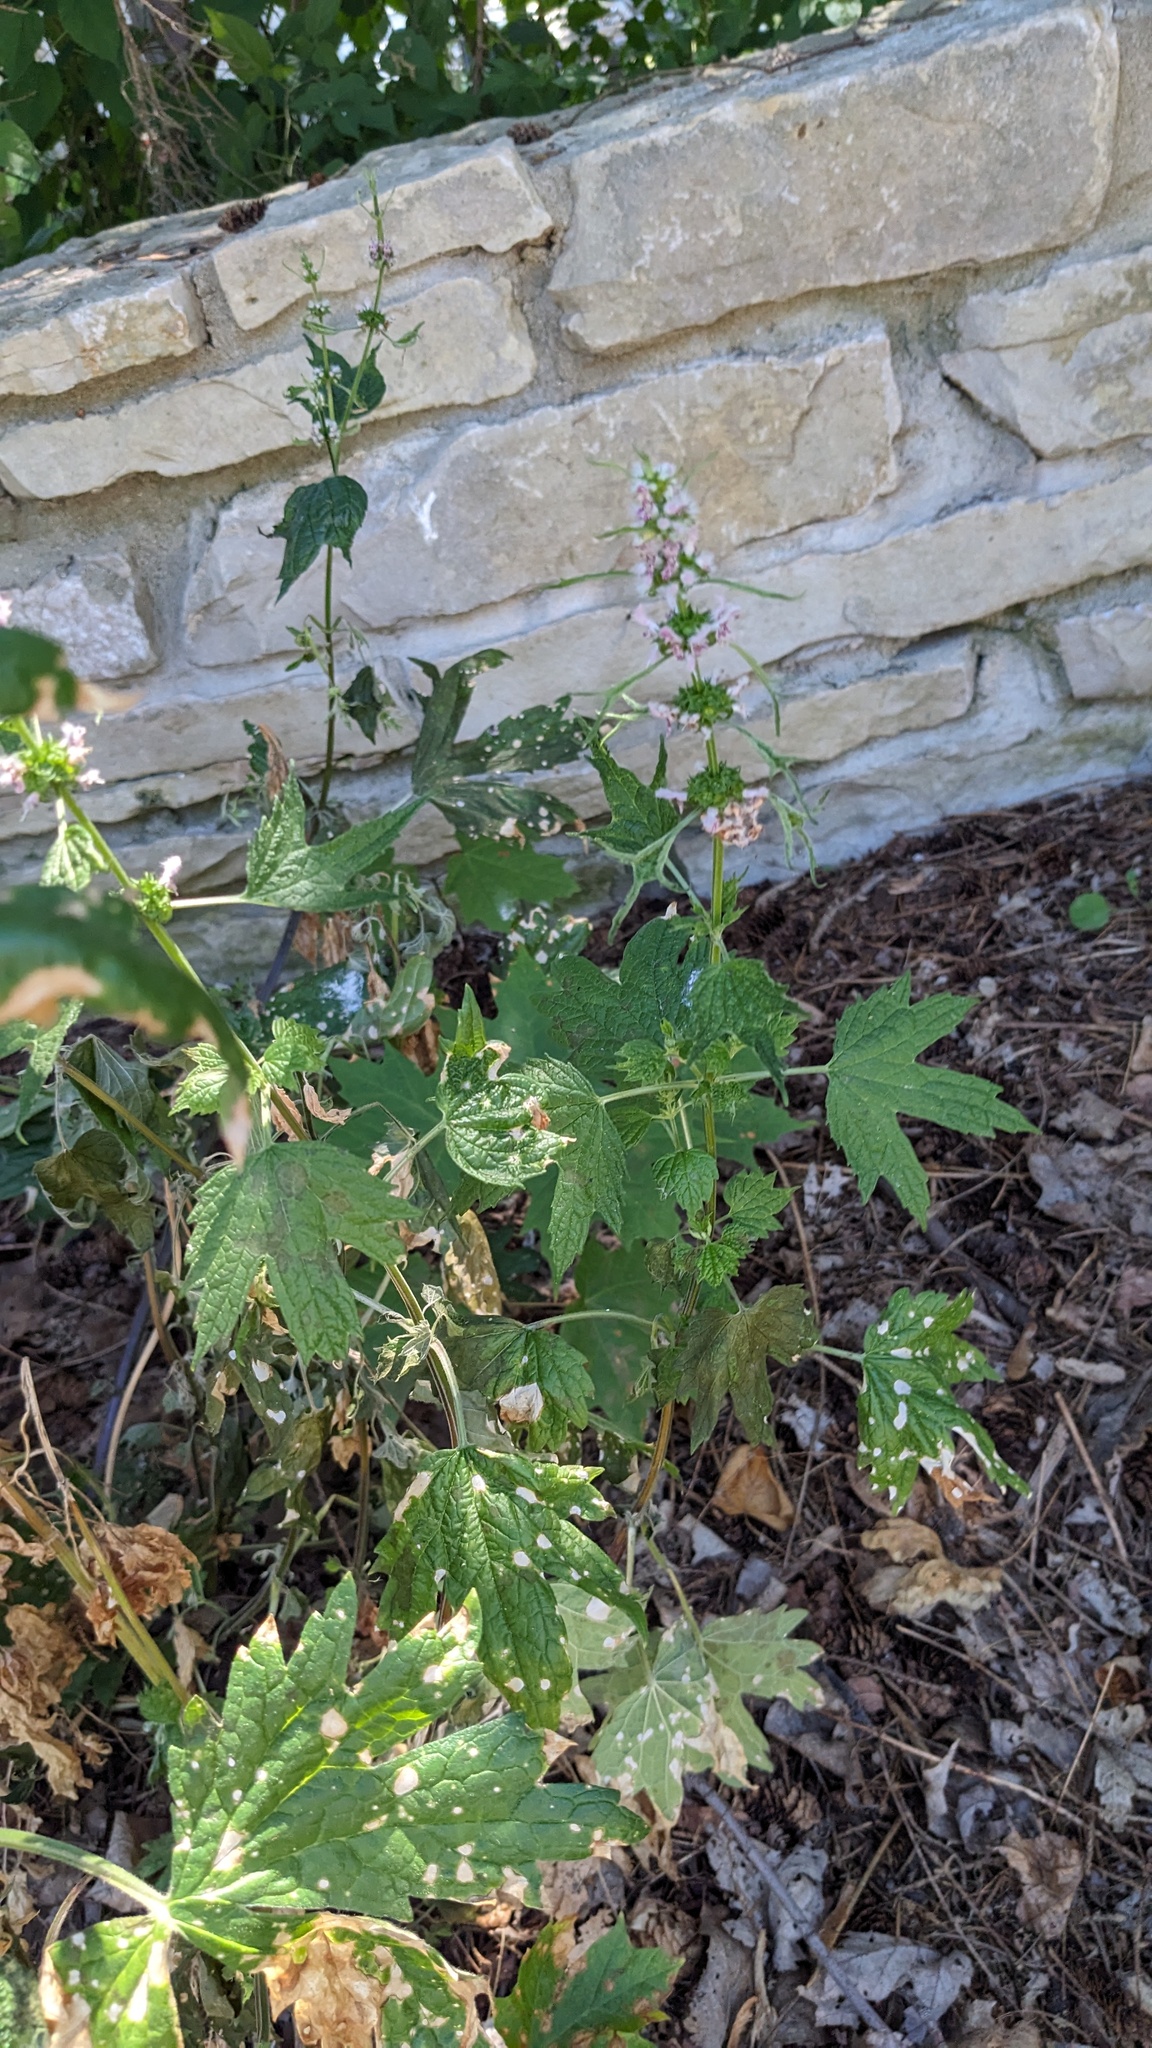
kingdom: Plantae
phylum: Tracheophyta
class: Magnoliopsida
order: Lamiales
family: Lamiaceae
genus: Leonurus
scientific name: Leonurus cardiaca
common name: Motherwort
